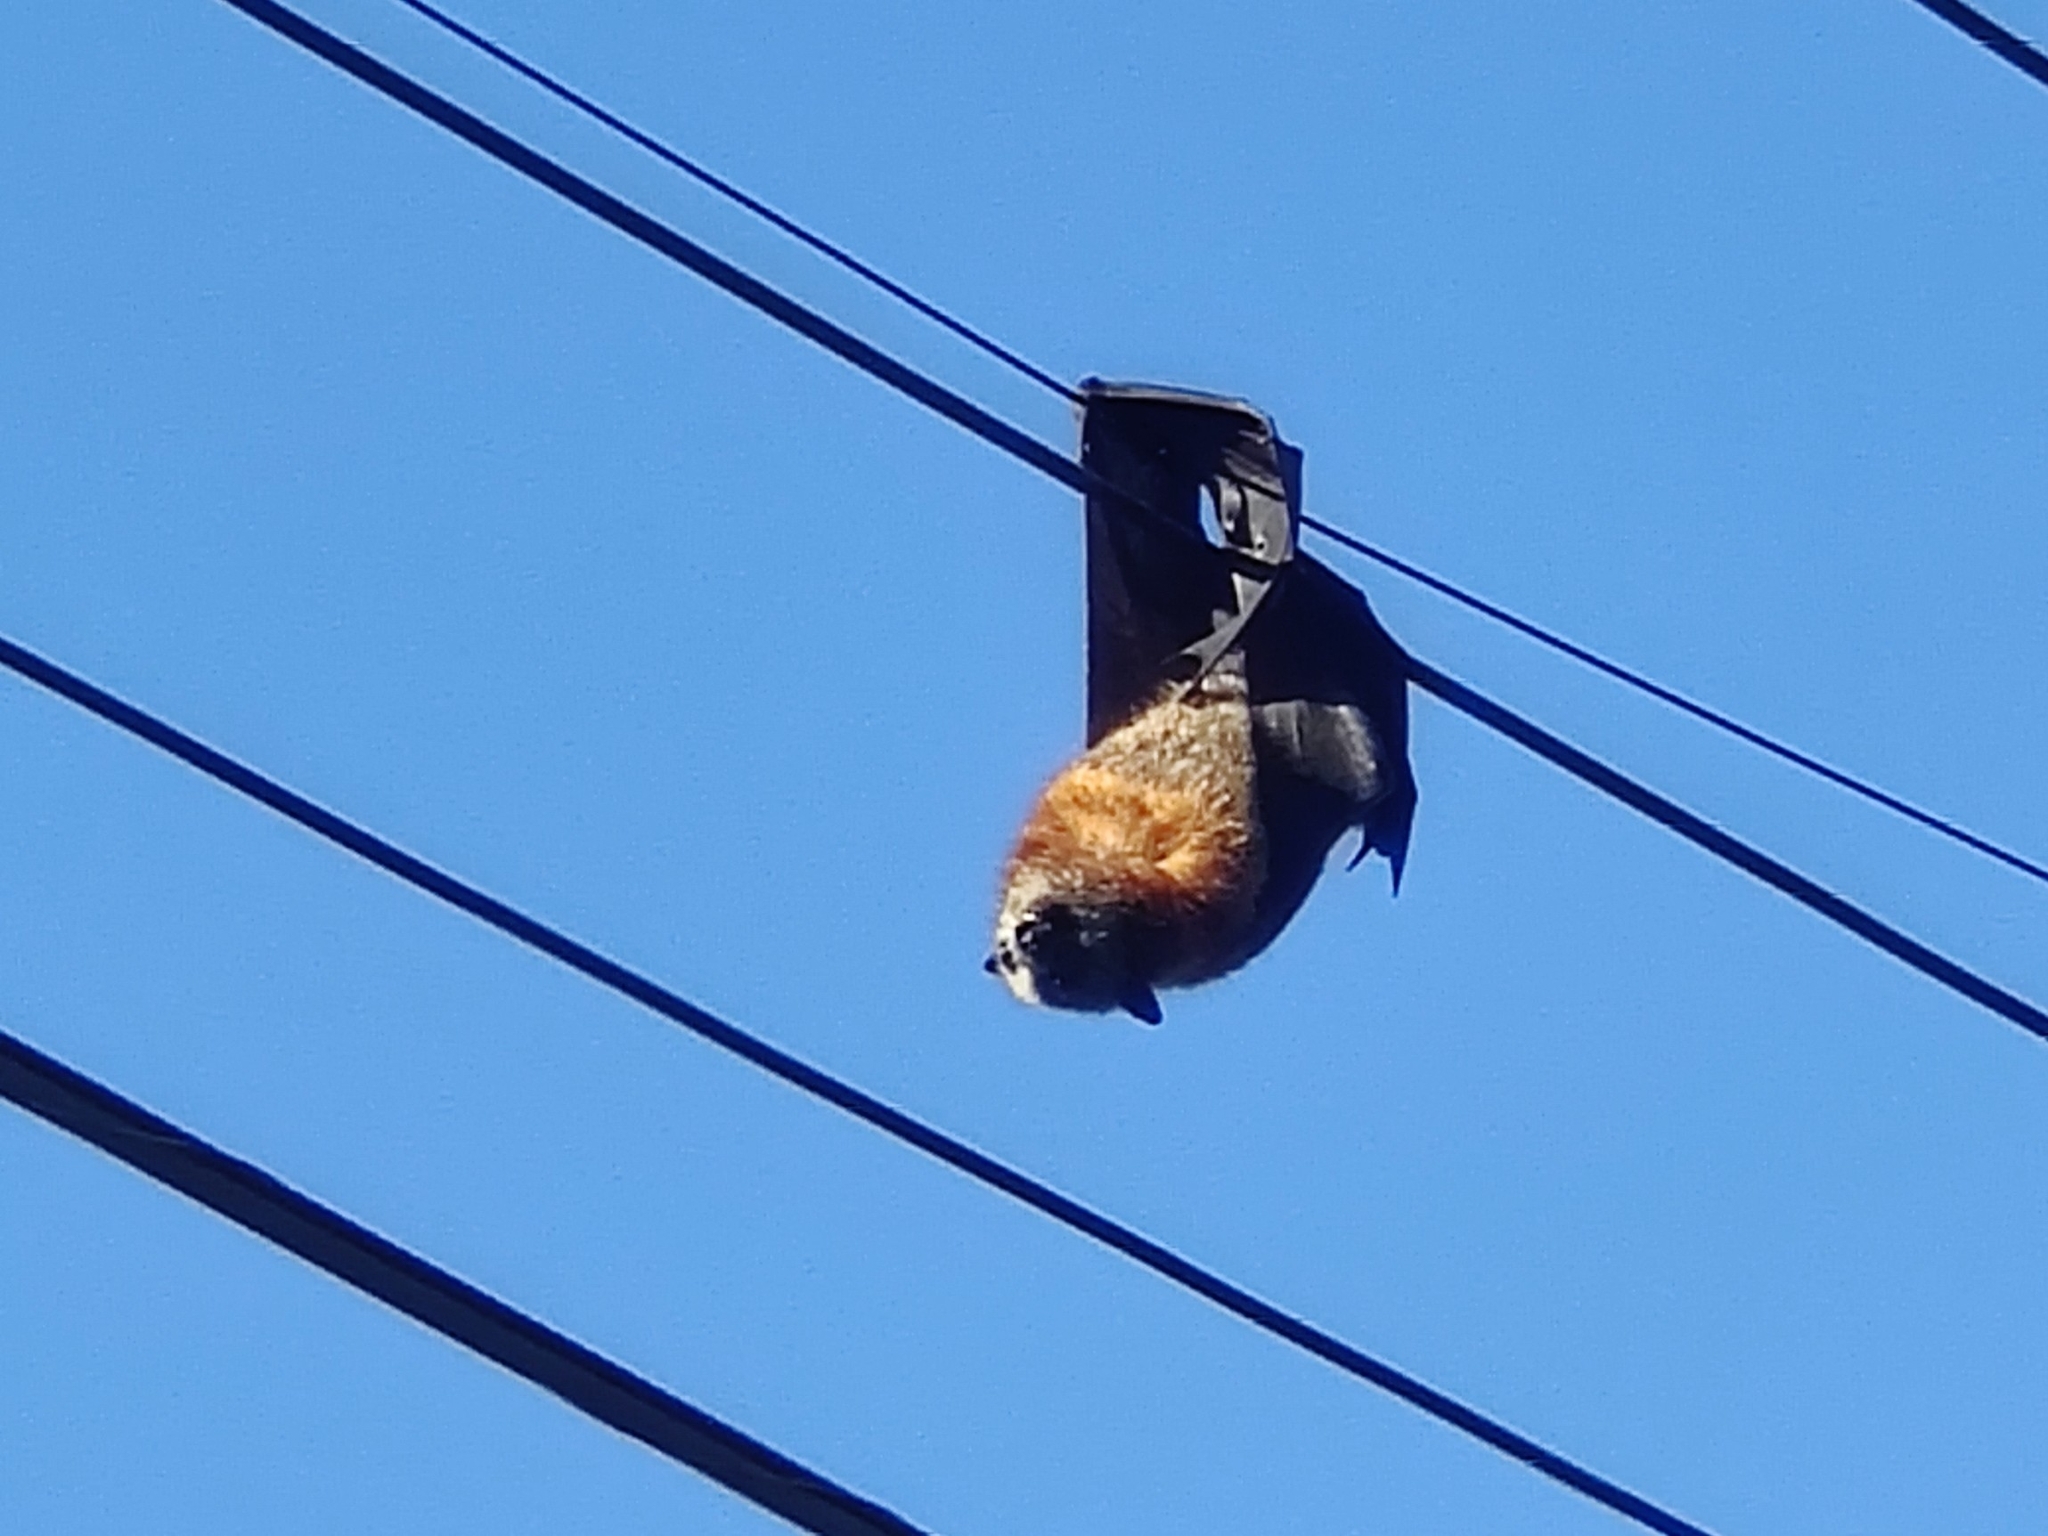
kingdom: Animalia
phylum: Chordata
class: Mammalia
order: Chiroptera
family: Pteropodidae
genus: Pteropus
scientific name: Pteropus poliocephalus
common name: Gray-headed flying fox
